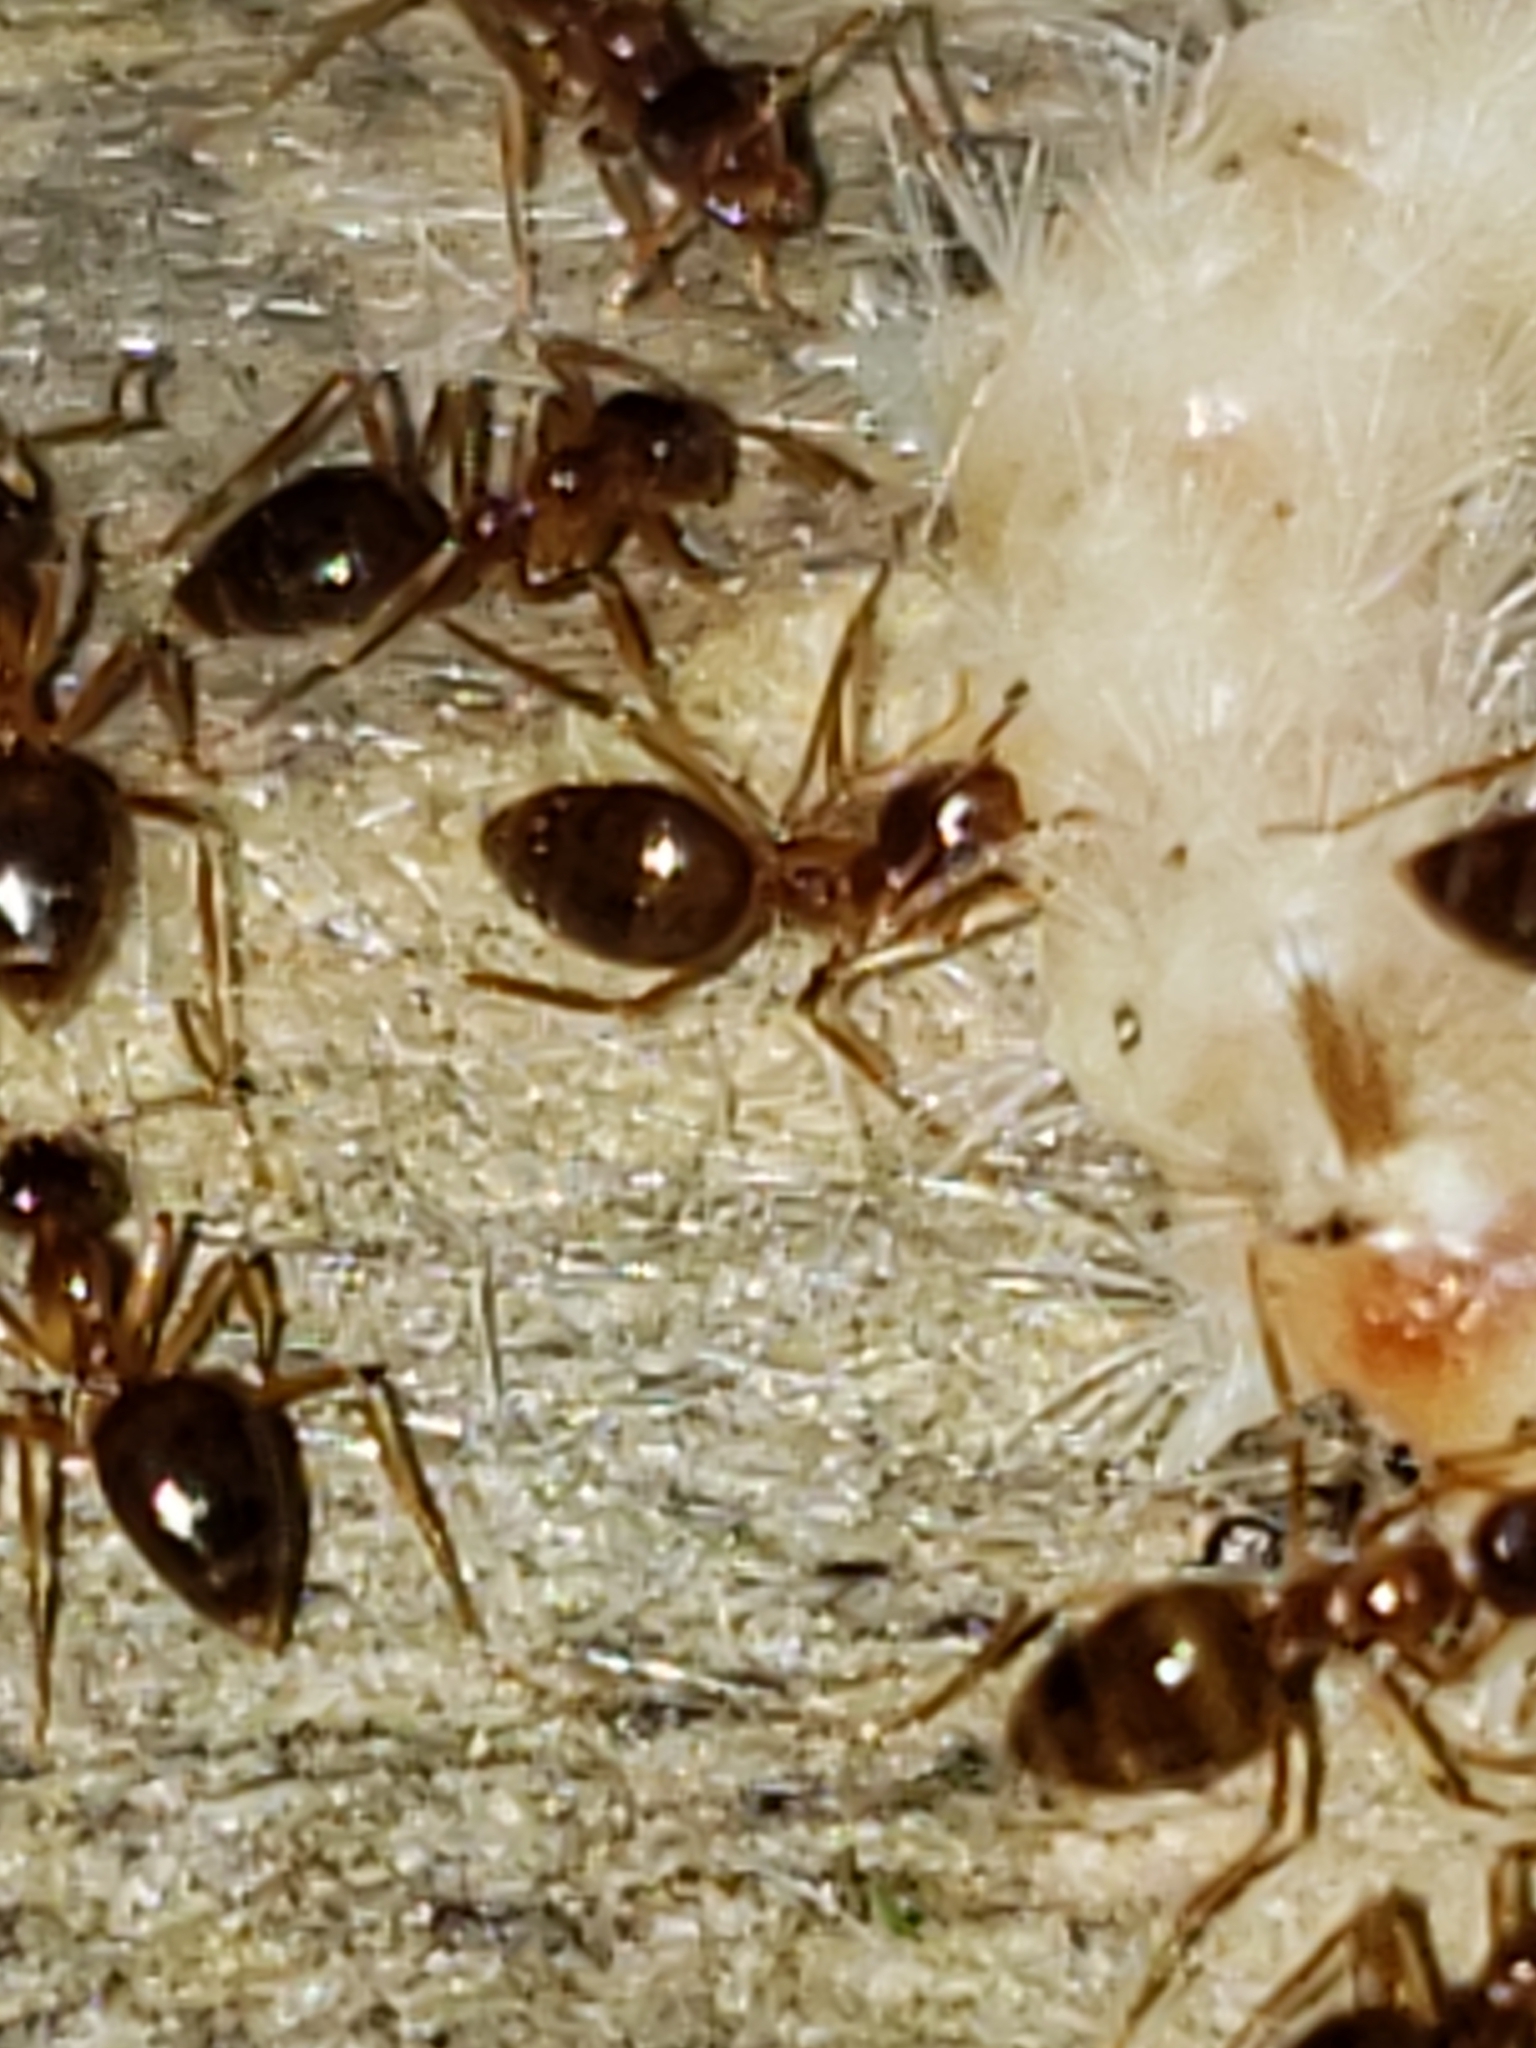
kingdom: Animalia
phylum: Arthropoda
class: Insecta
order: Hymenoptera
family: Formicidae
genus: Prenolepis
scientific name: Prenolepis imparis
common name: Small honey ant
